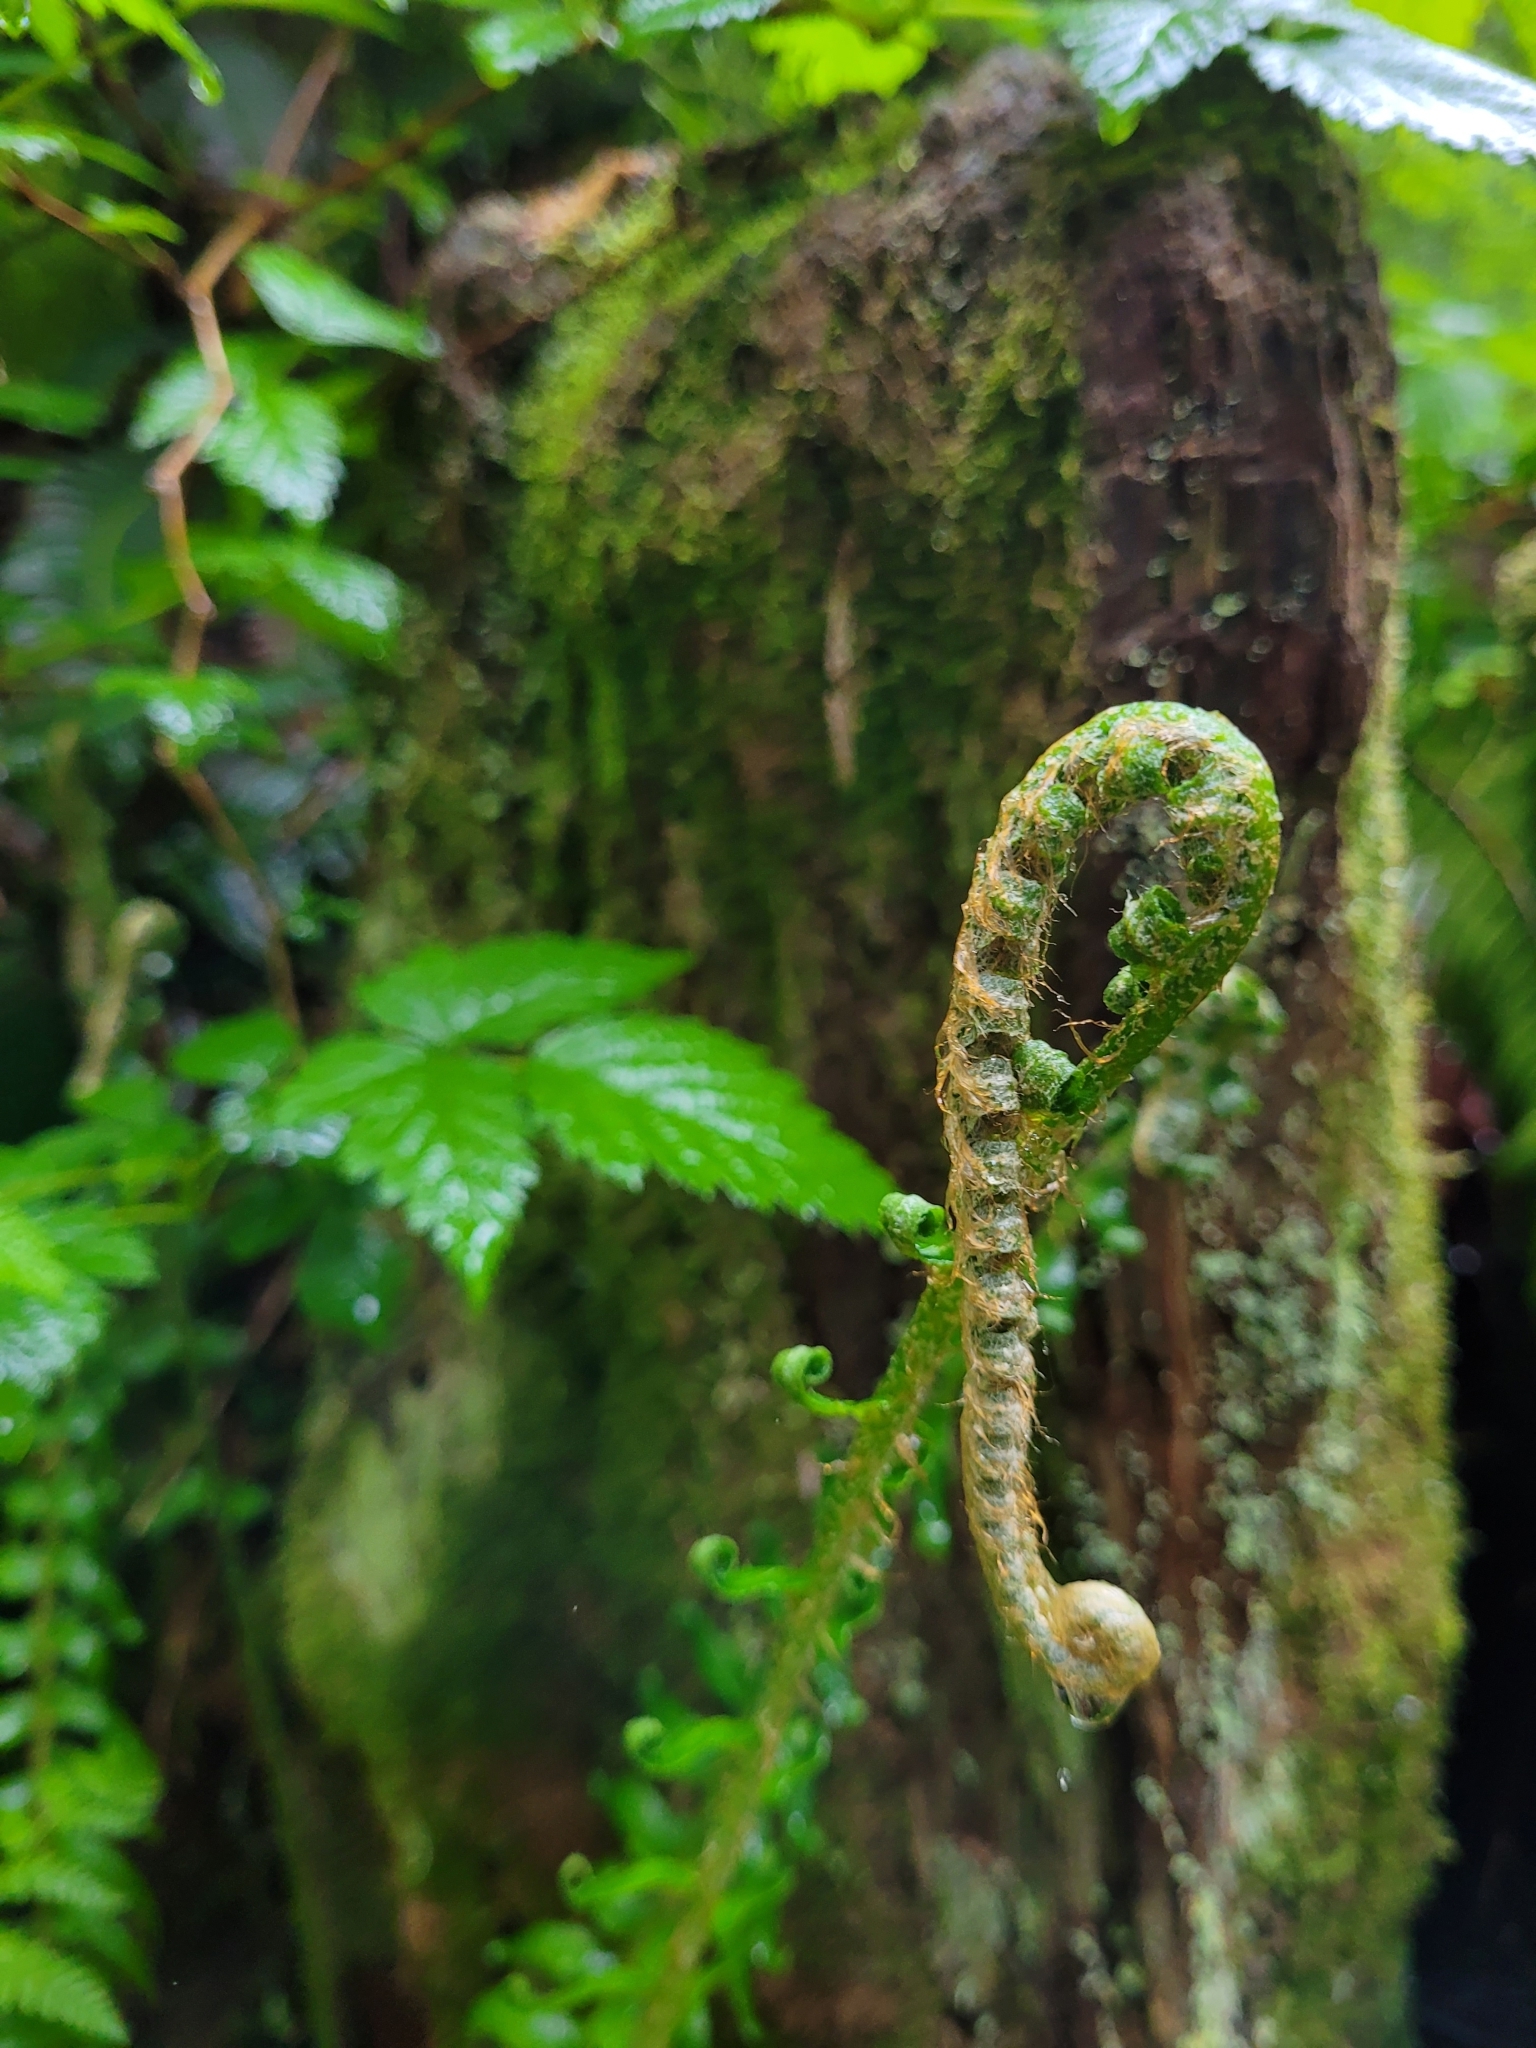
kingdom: Plantae
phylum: Tracheophyta
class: Polypodiopsida
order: Polypodiales
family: Dryopteridaceae
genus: Polystichum
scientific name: Polystichum munitum
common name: Western sword-fern
